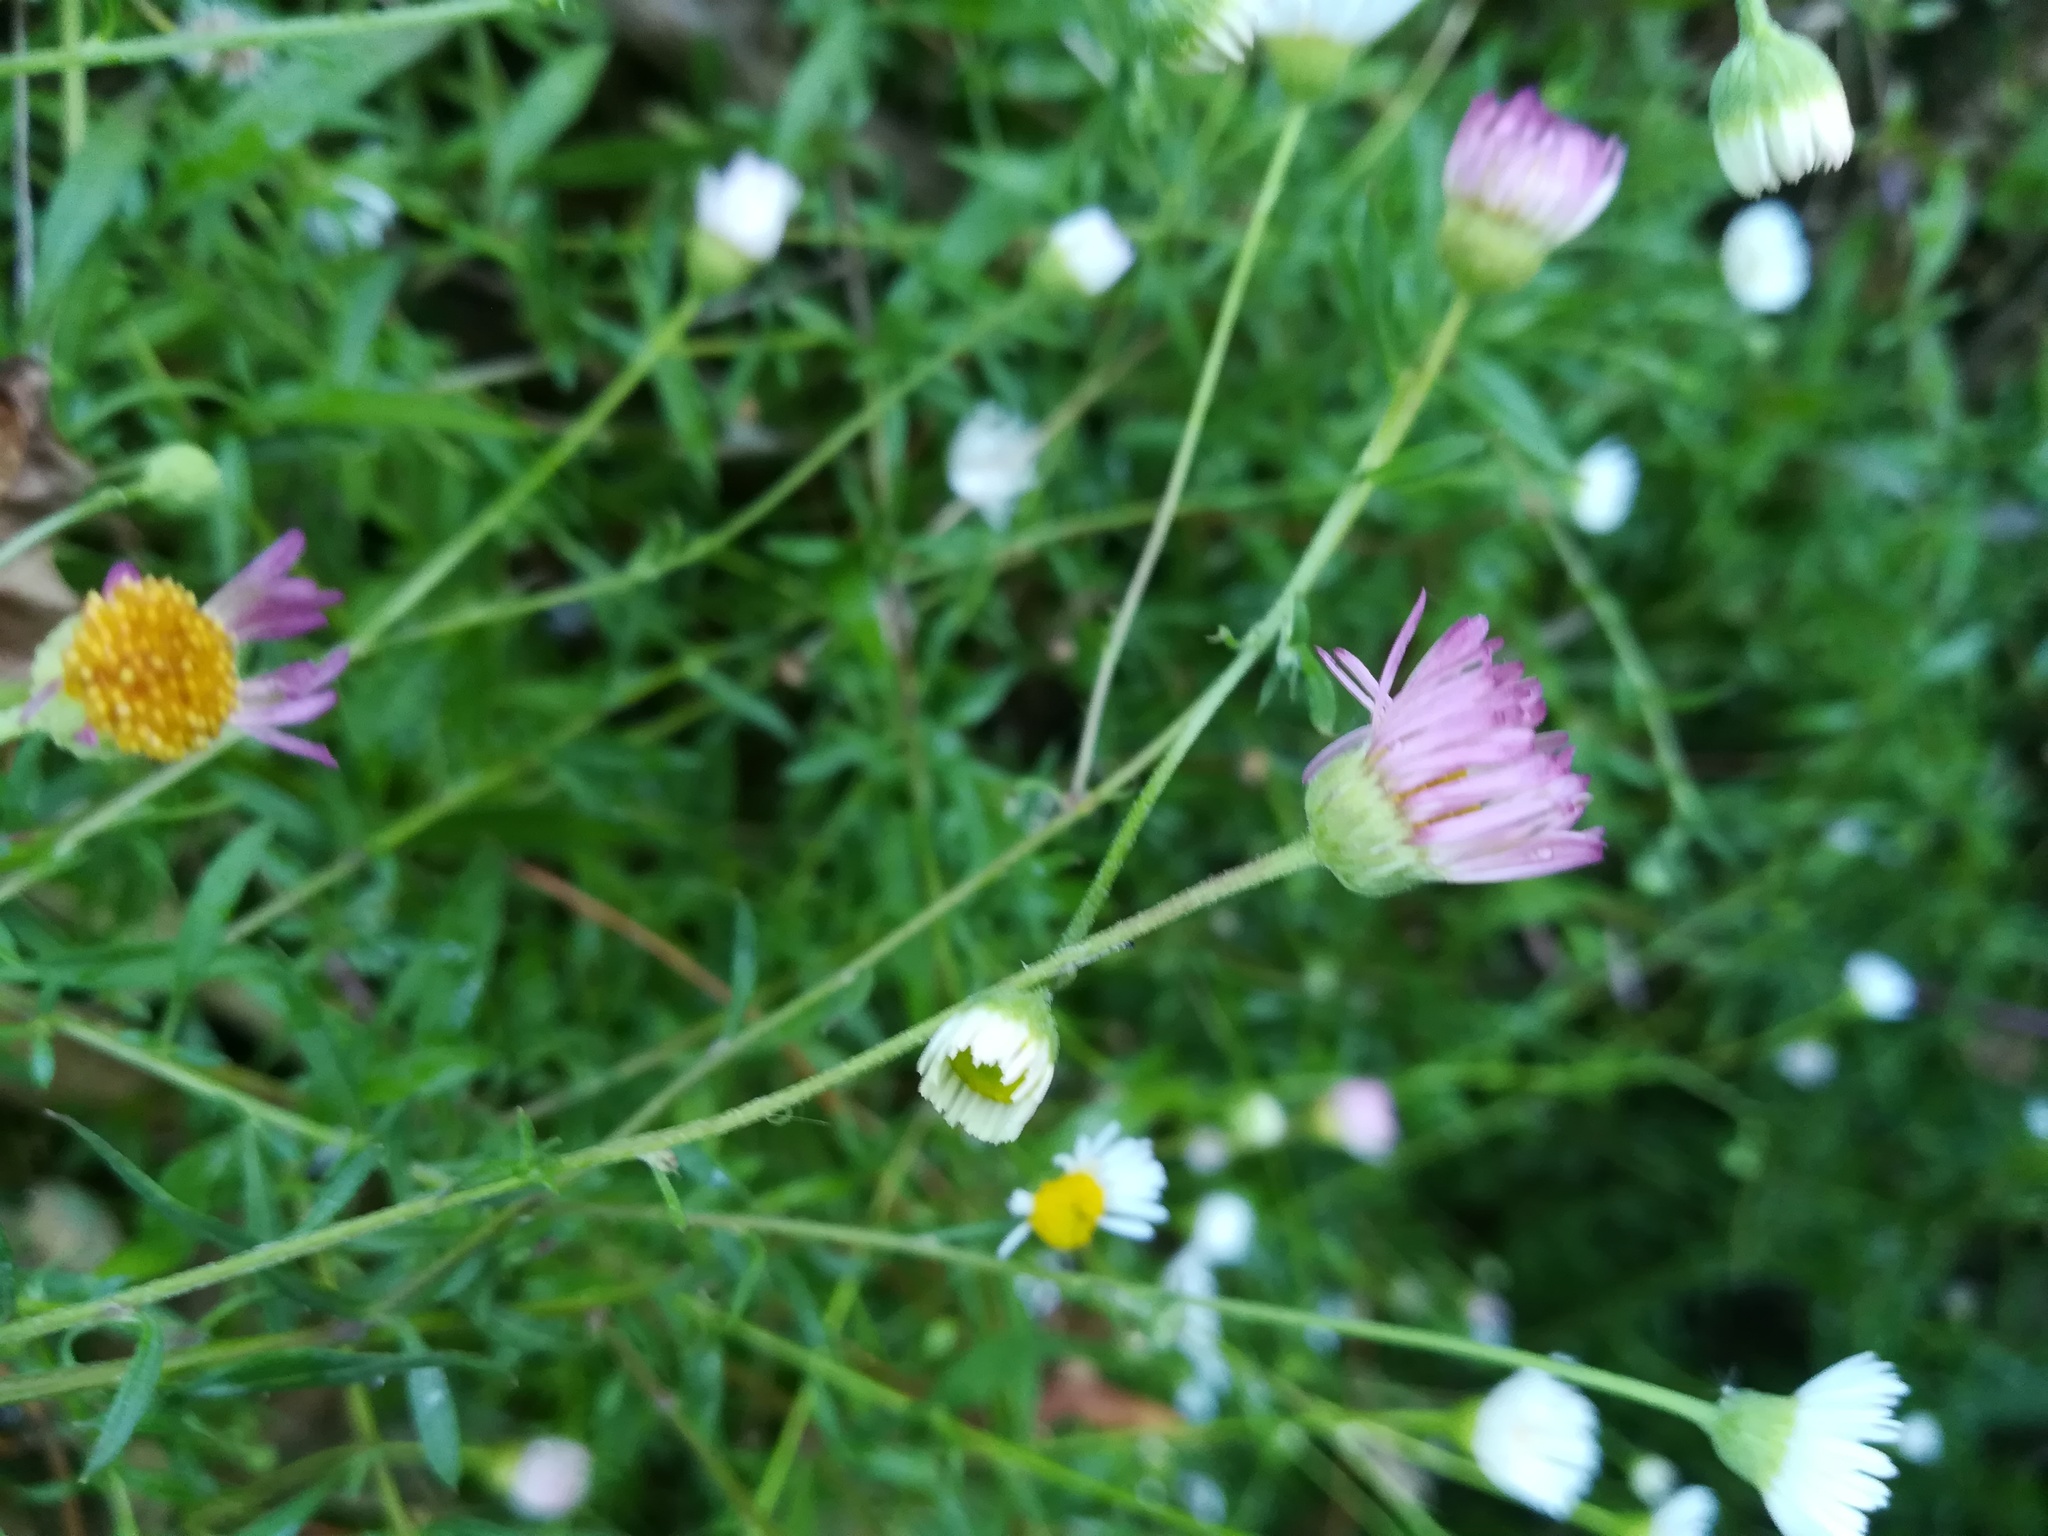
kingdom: Plantae
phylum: Tracheophyta
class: Magnoliopsida
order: Asterales
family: Asteraceae
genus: Erigeron
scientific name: Erigeron karvinskianus
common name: Mexican fleabane
